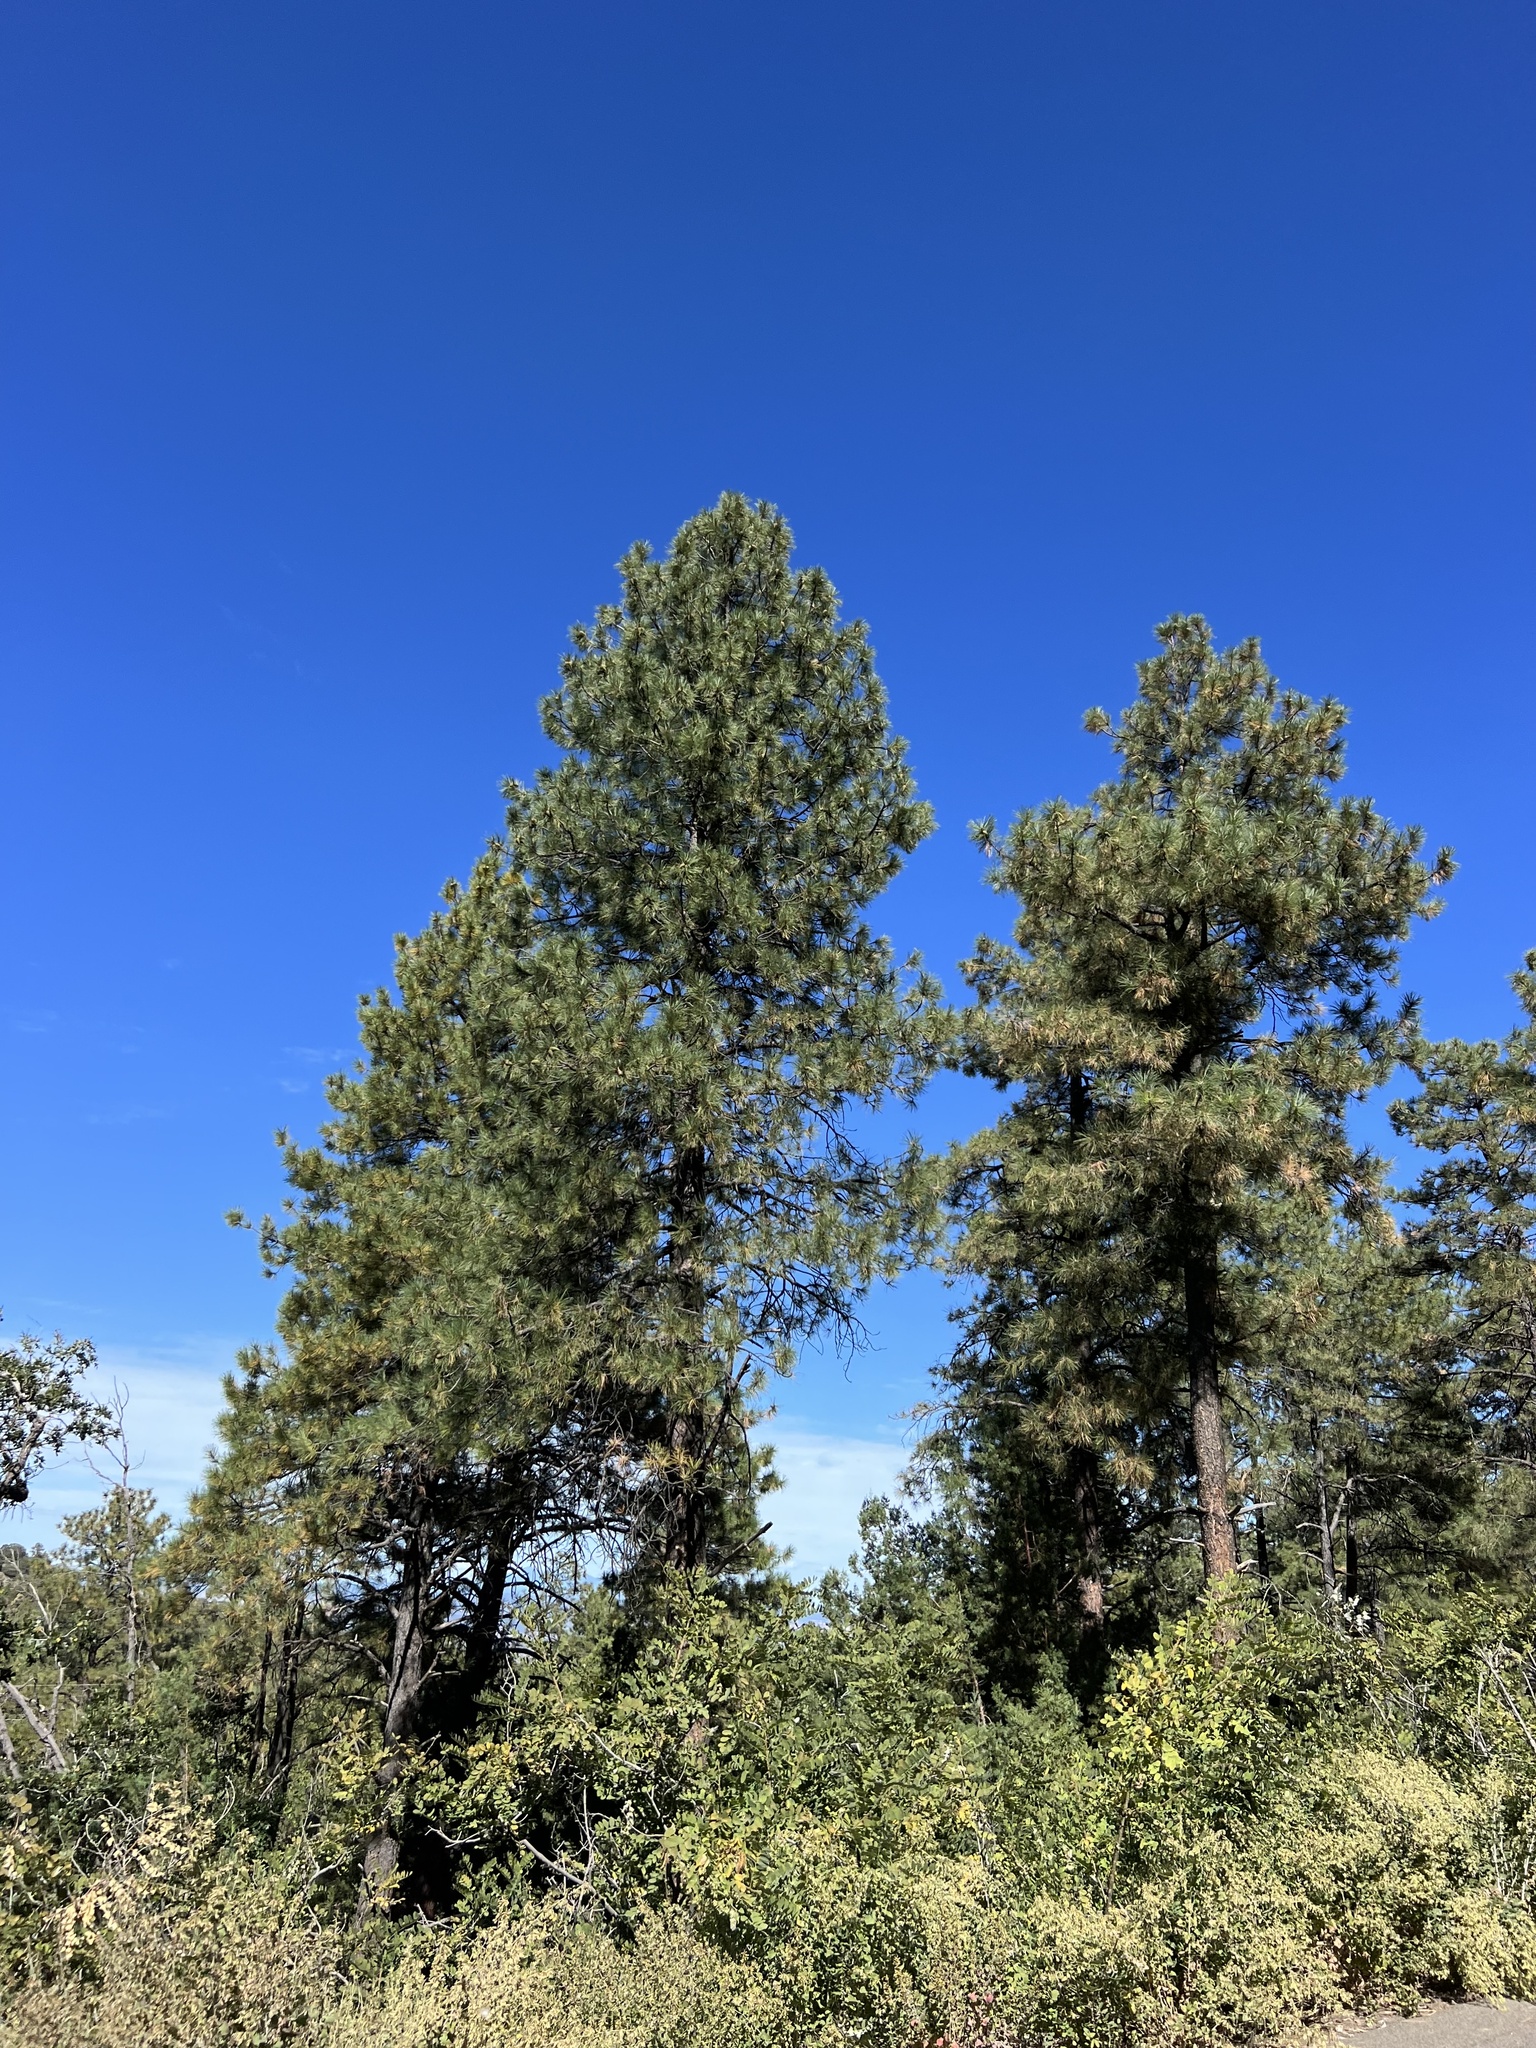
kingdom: Plantae
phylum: Tracheophyta
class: Pinopsida
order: Pinales
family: Pinaceae
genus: Pinus
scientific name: Pinus ponderosa
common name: Western yellow-pine
